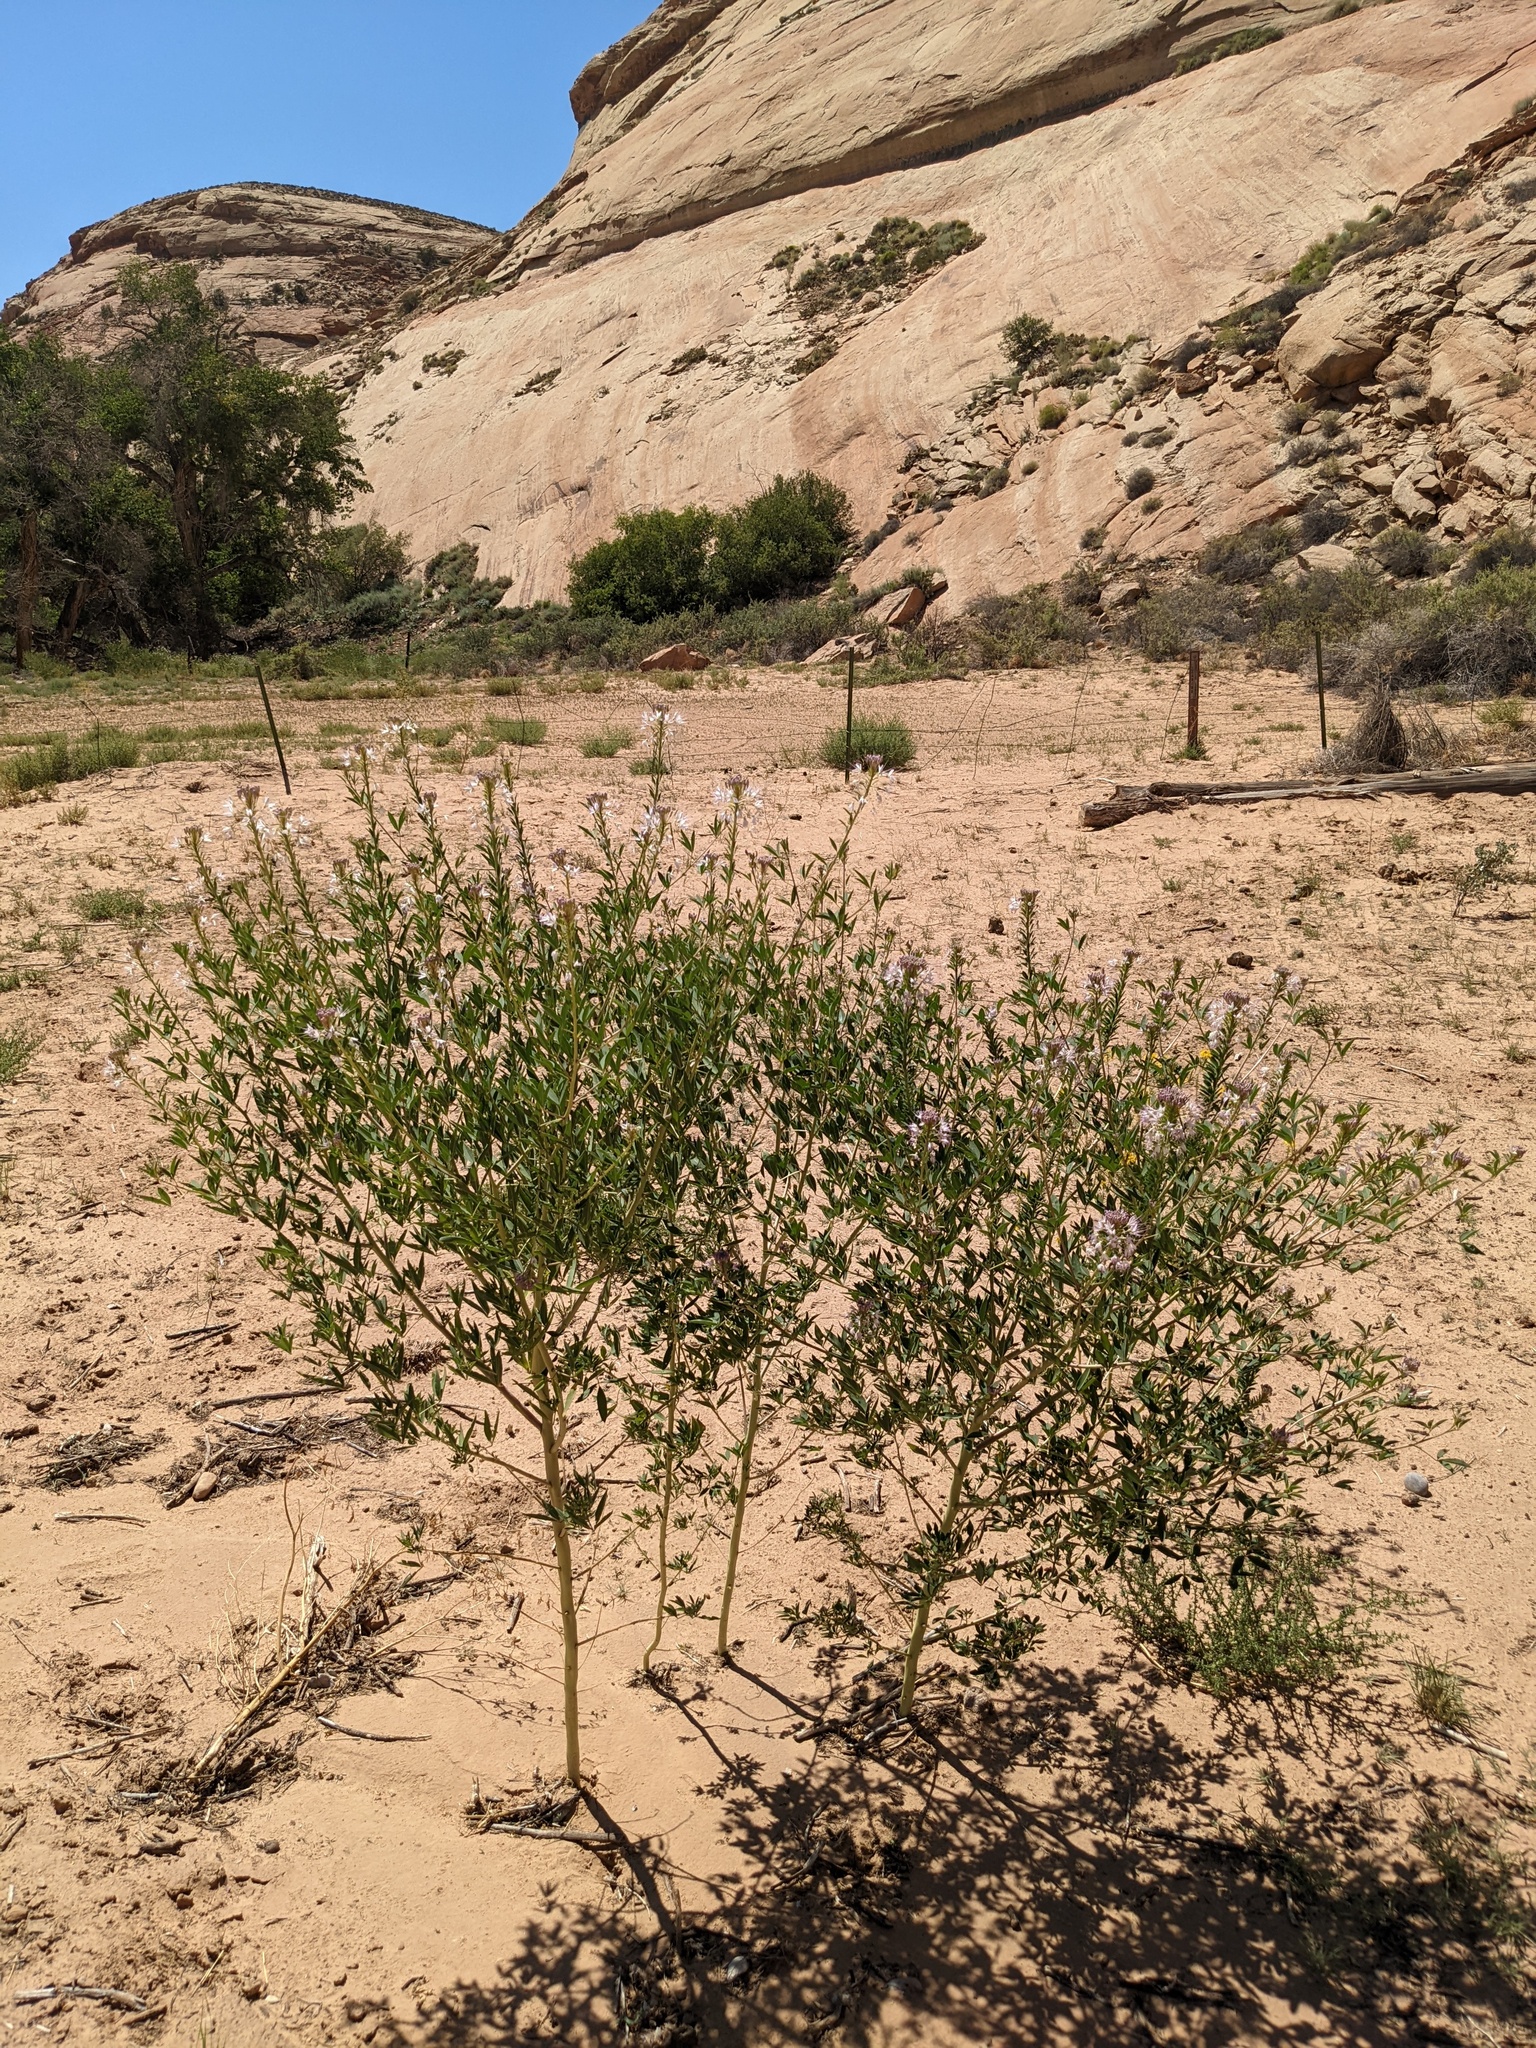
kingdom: Plantae
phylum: Tracheophyta
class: Magnoliopsida
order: Brassicales
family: Cleomaceae
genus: Cleomella
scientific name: Cleomella serrulata
